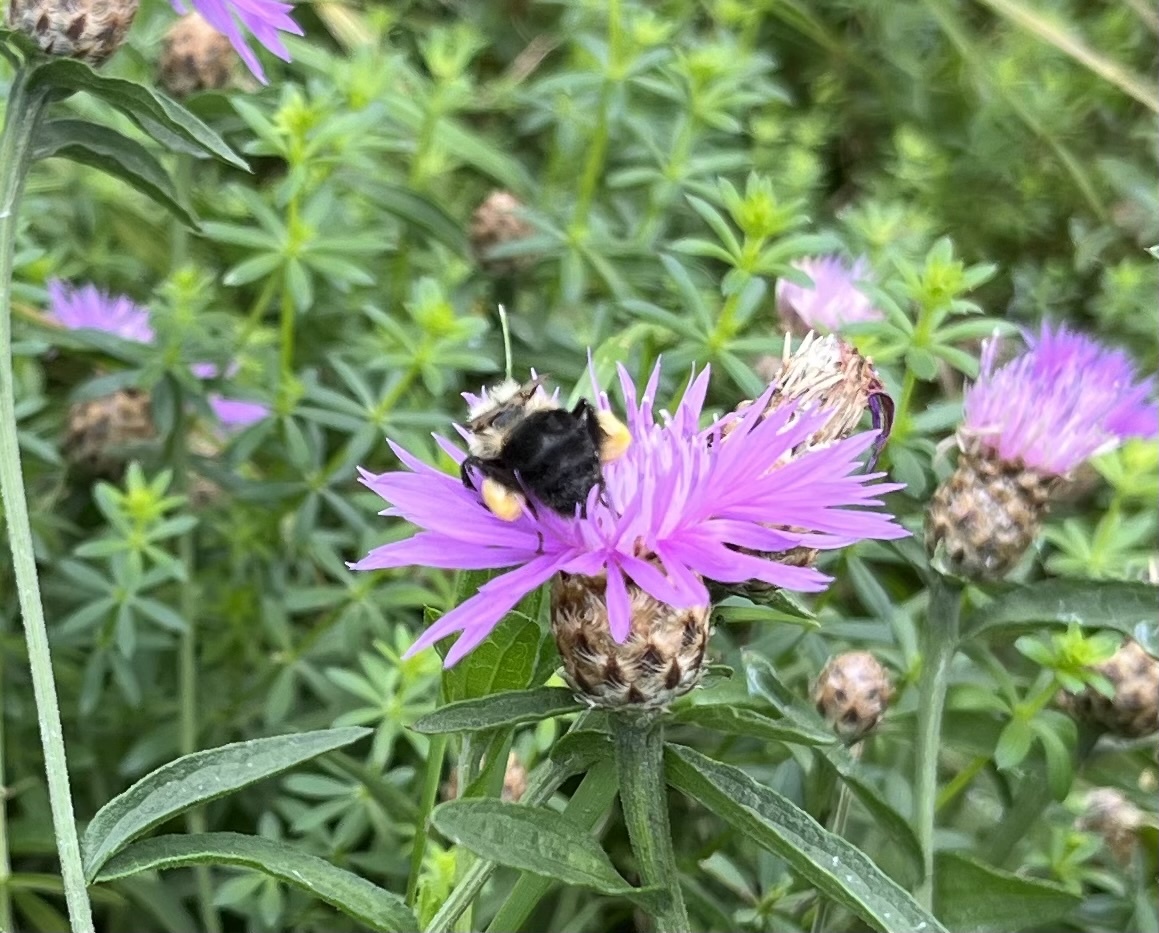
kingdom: Animalia
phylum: Arthropoda
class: Insecta
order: Hymenoptera
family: Apidae
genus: Bombus
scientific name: Bombus impatiens
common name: Common eastern bumble bee
